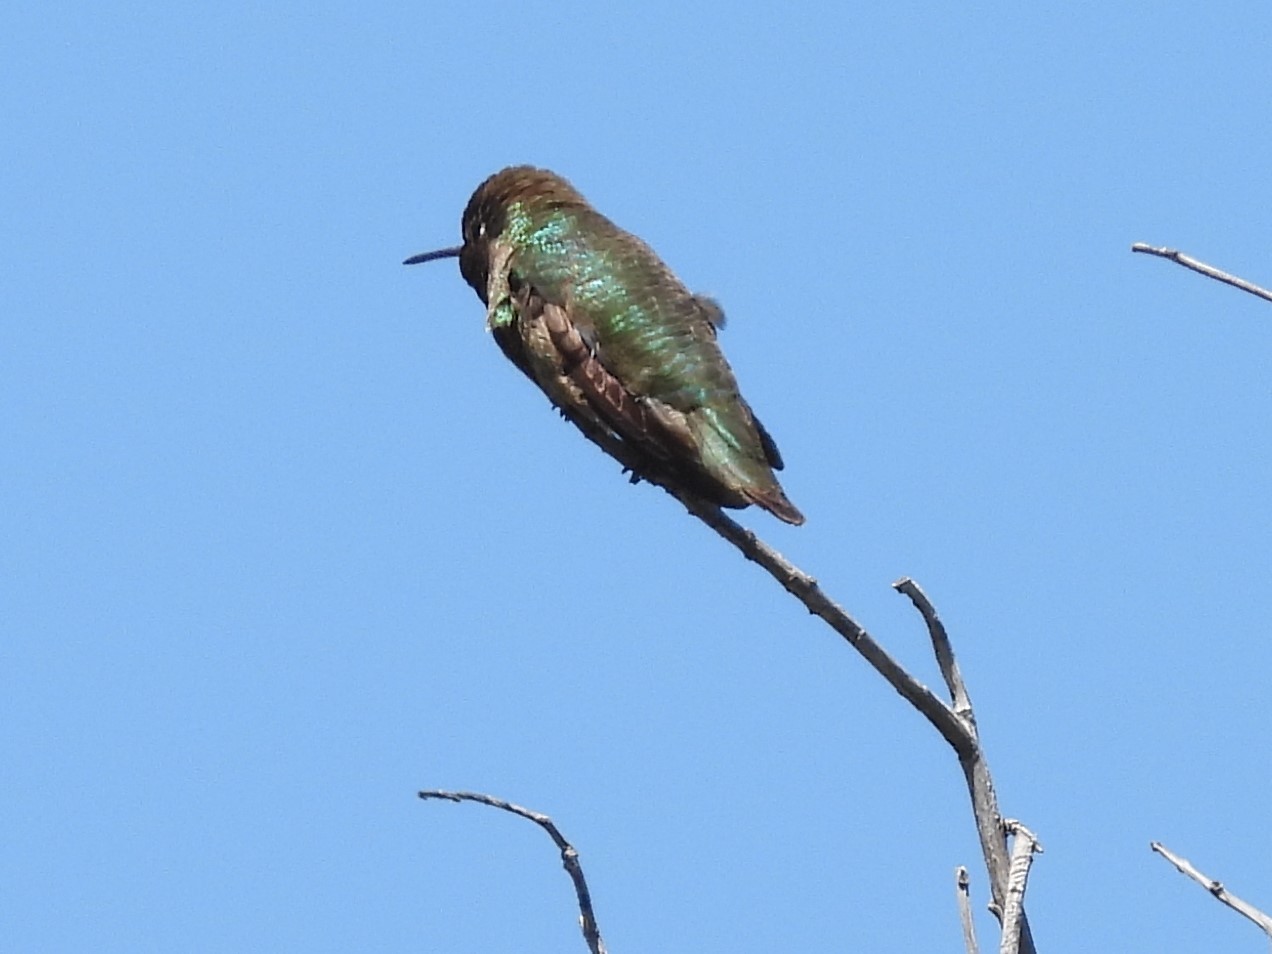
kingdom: Animalia
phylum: Chordata
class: Aves
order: Apodiformes
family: Trochilidae
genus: Calypte
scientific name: Calypte anna
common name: Anna's hummingbird
